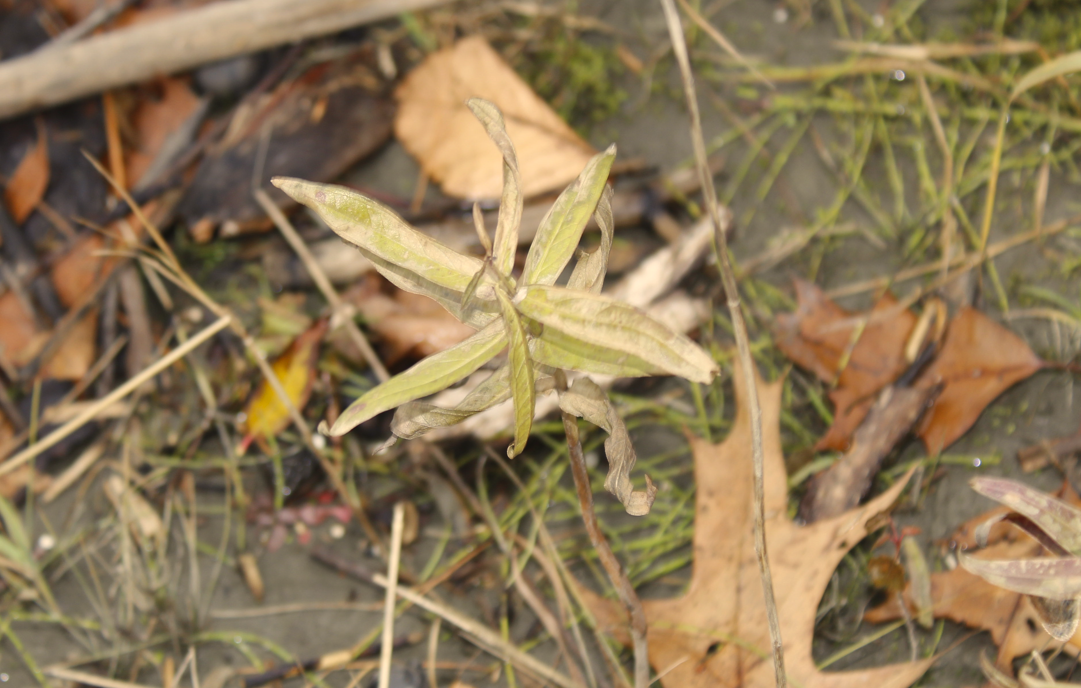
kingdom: Plantae
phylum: Tracheophyta
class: Magnoliopsida
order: Myrtales
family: Lythraceae
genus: Lythrum
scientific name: Lythrum salicaria
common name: Purple loosestrife
